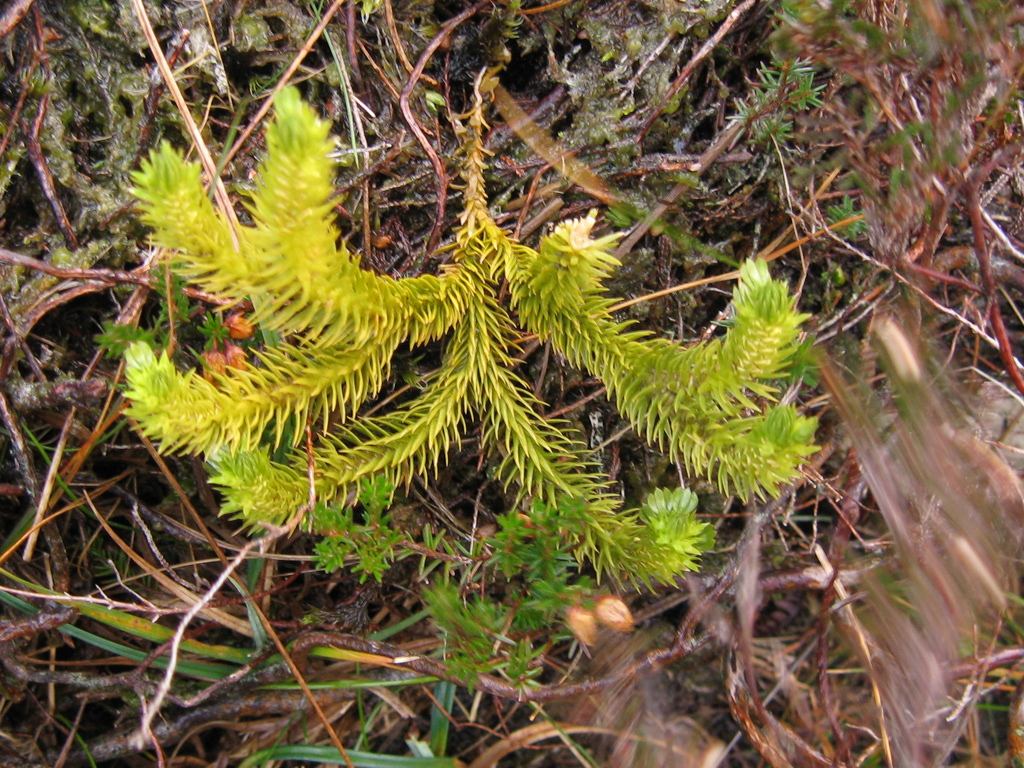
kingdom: Plantae
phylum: Tracheophyta
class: Lycopodiopsida
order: Lycopodiales
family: Lycopodiaceae
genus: Huperzia
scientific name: Huperzia selago
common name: Northern firmoss
